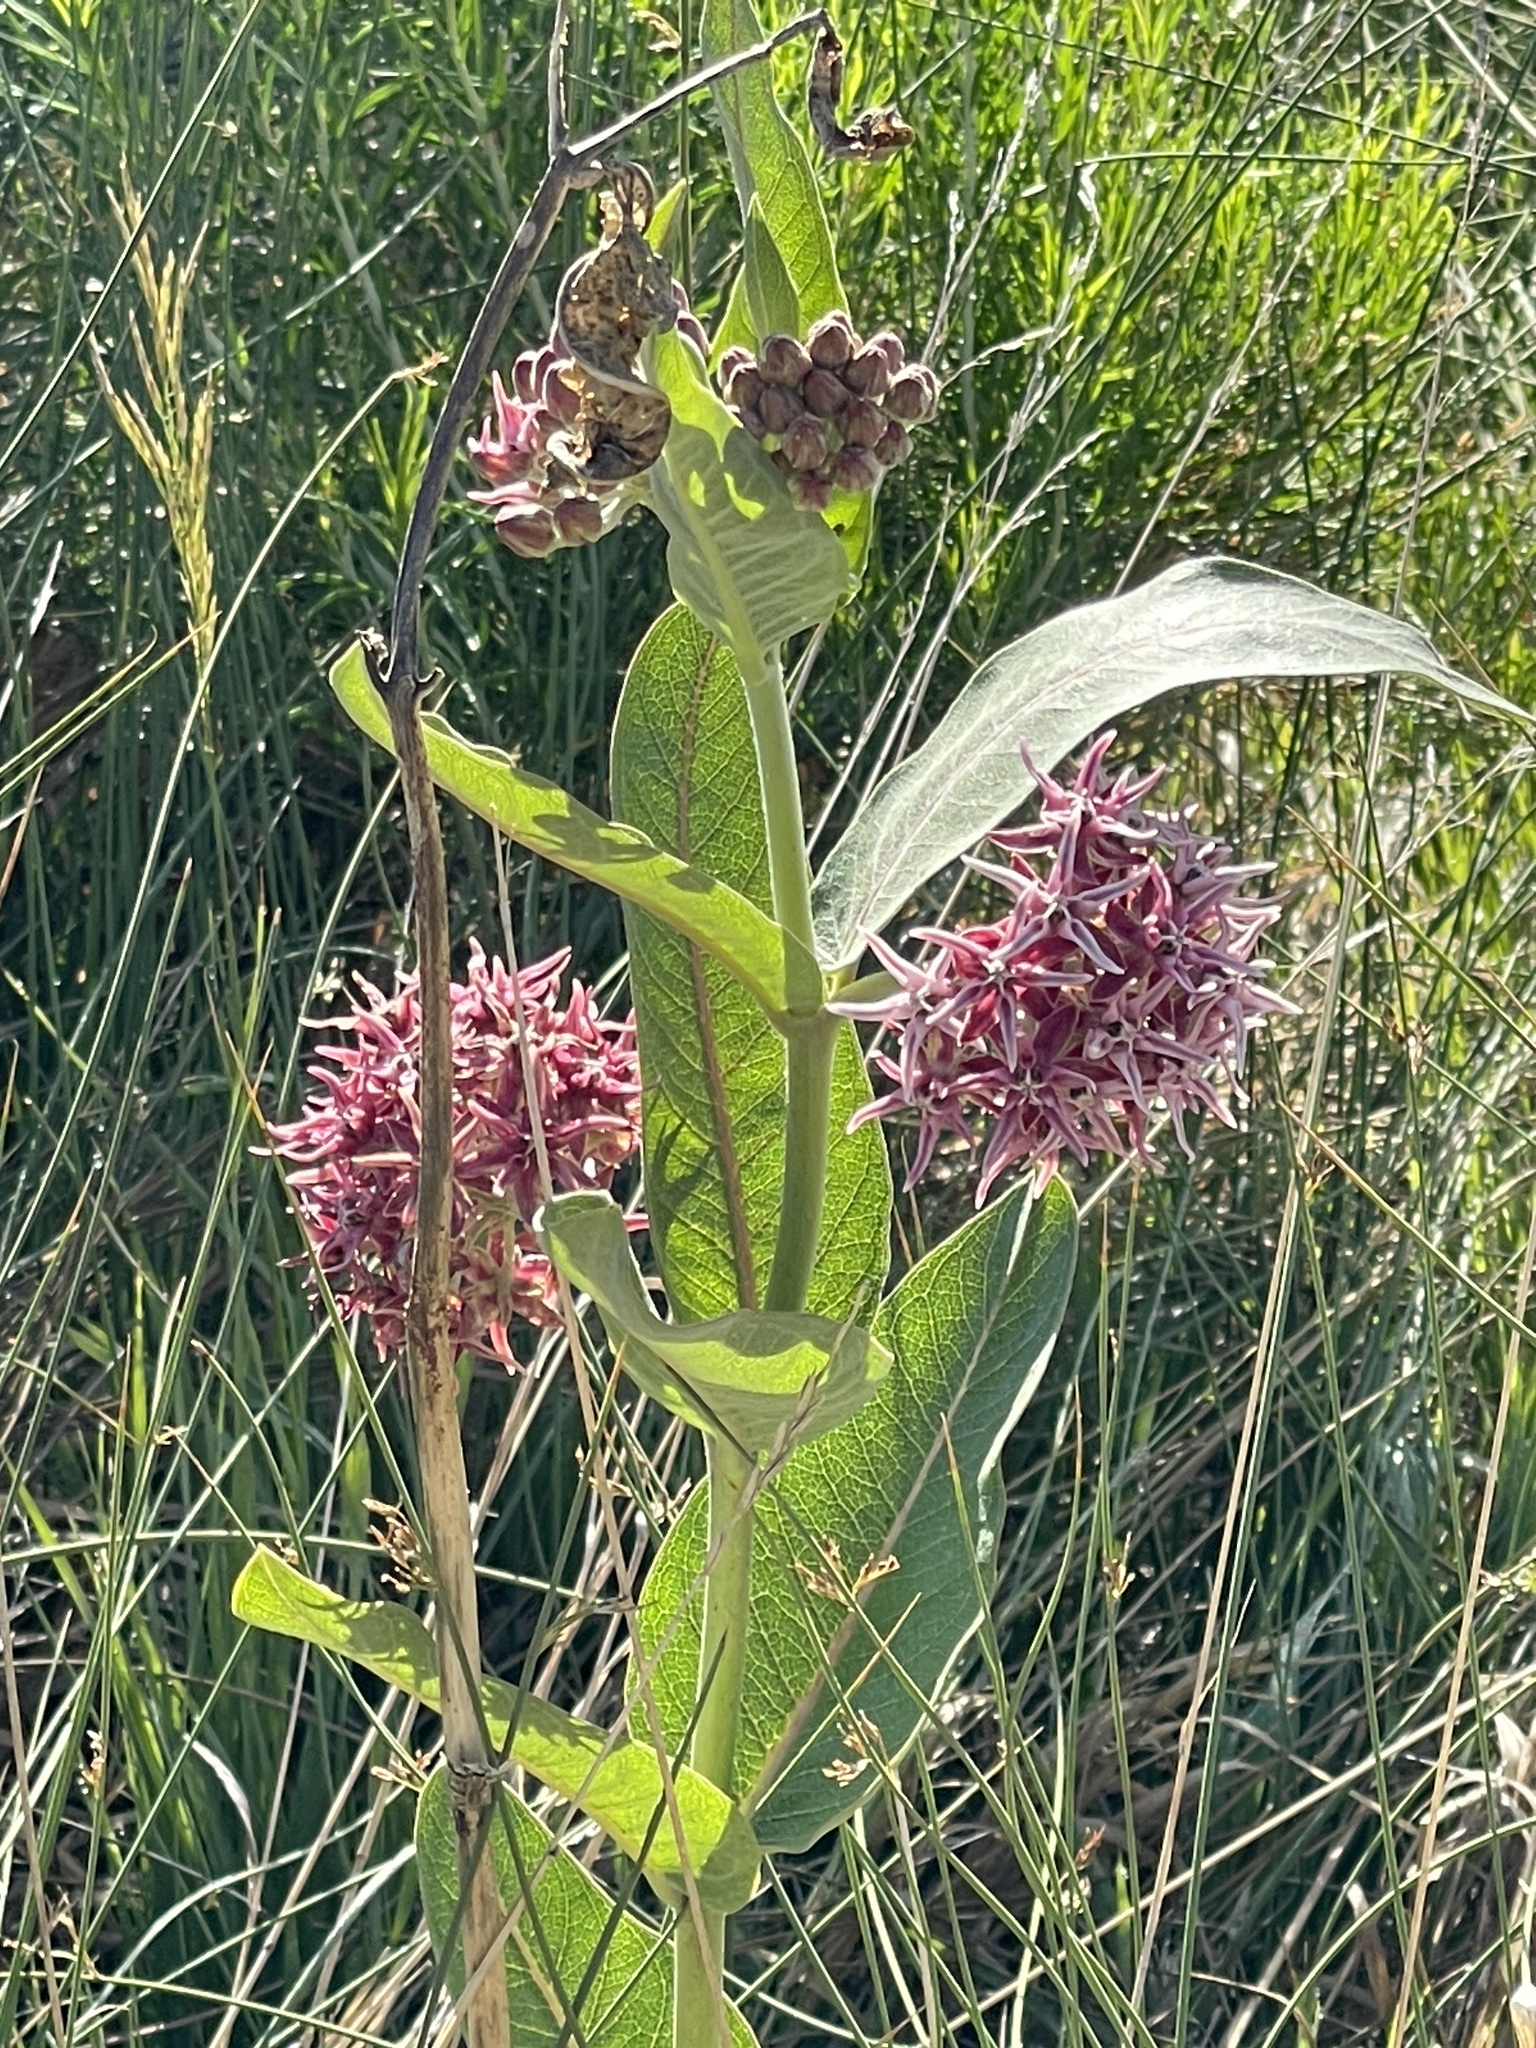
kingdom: Plantae
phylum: Tracheophyta
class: Magnoliopsida
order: Gentianales
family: Apocynaceae
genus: Asclepias
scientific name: Asclepias speciosa
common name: Showy milkweed
